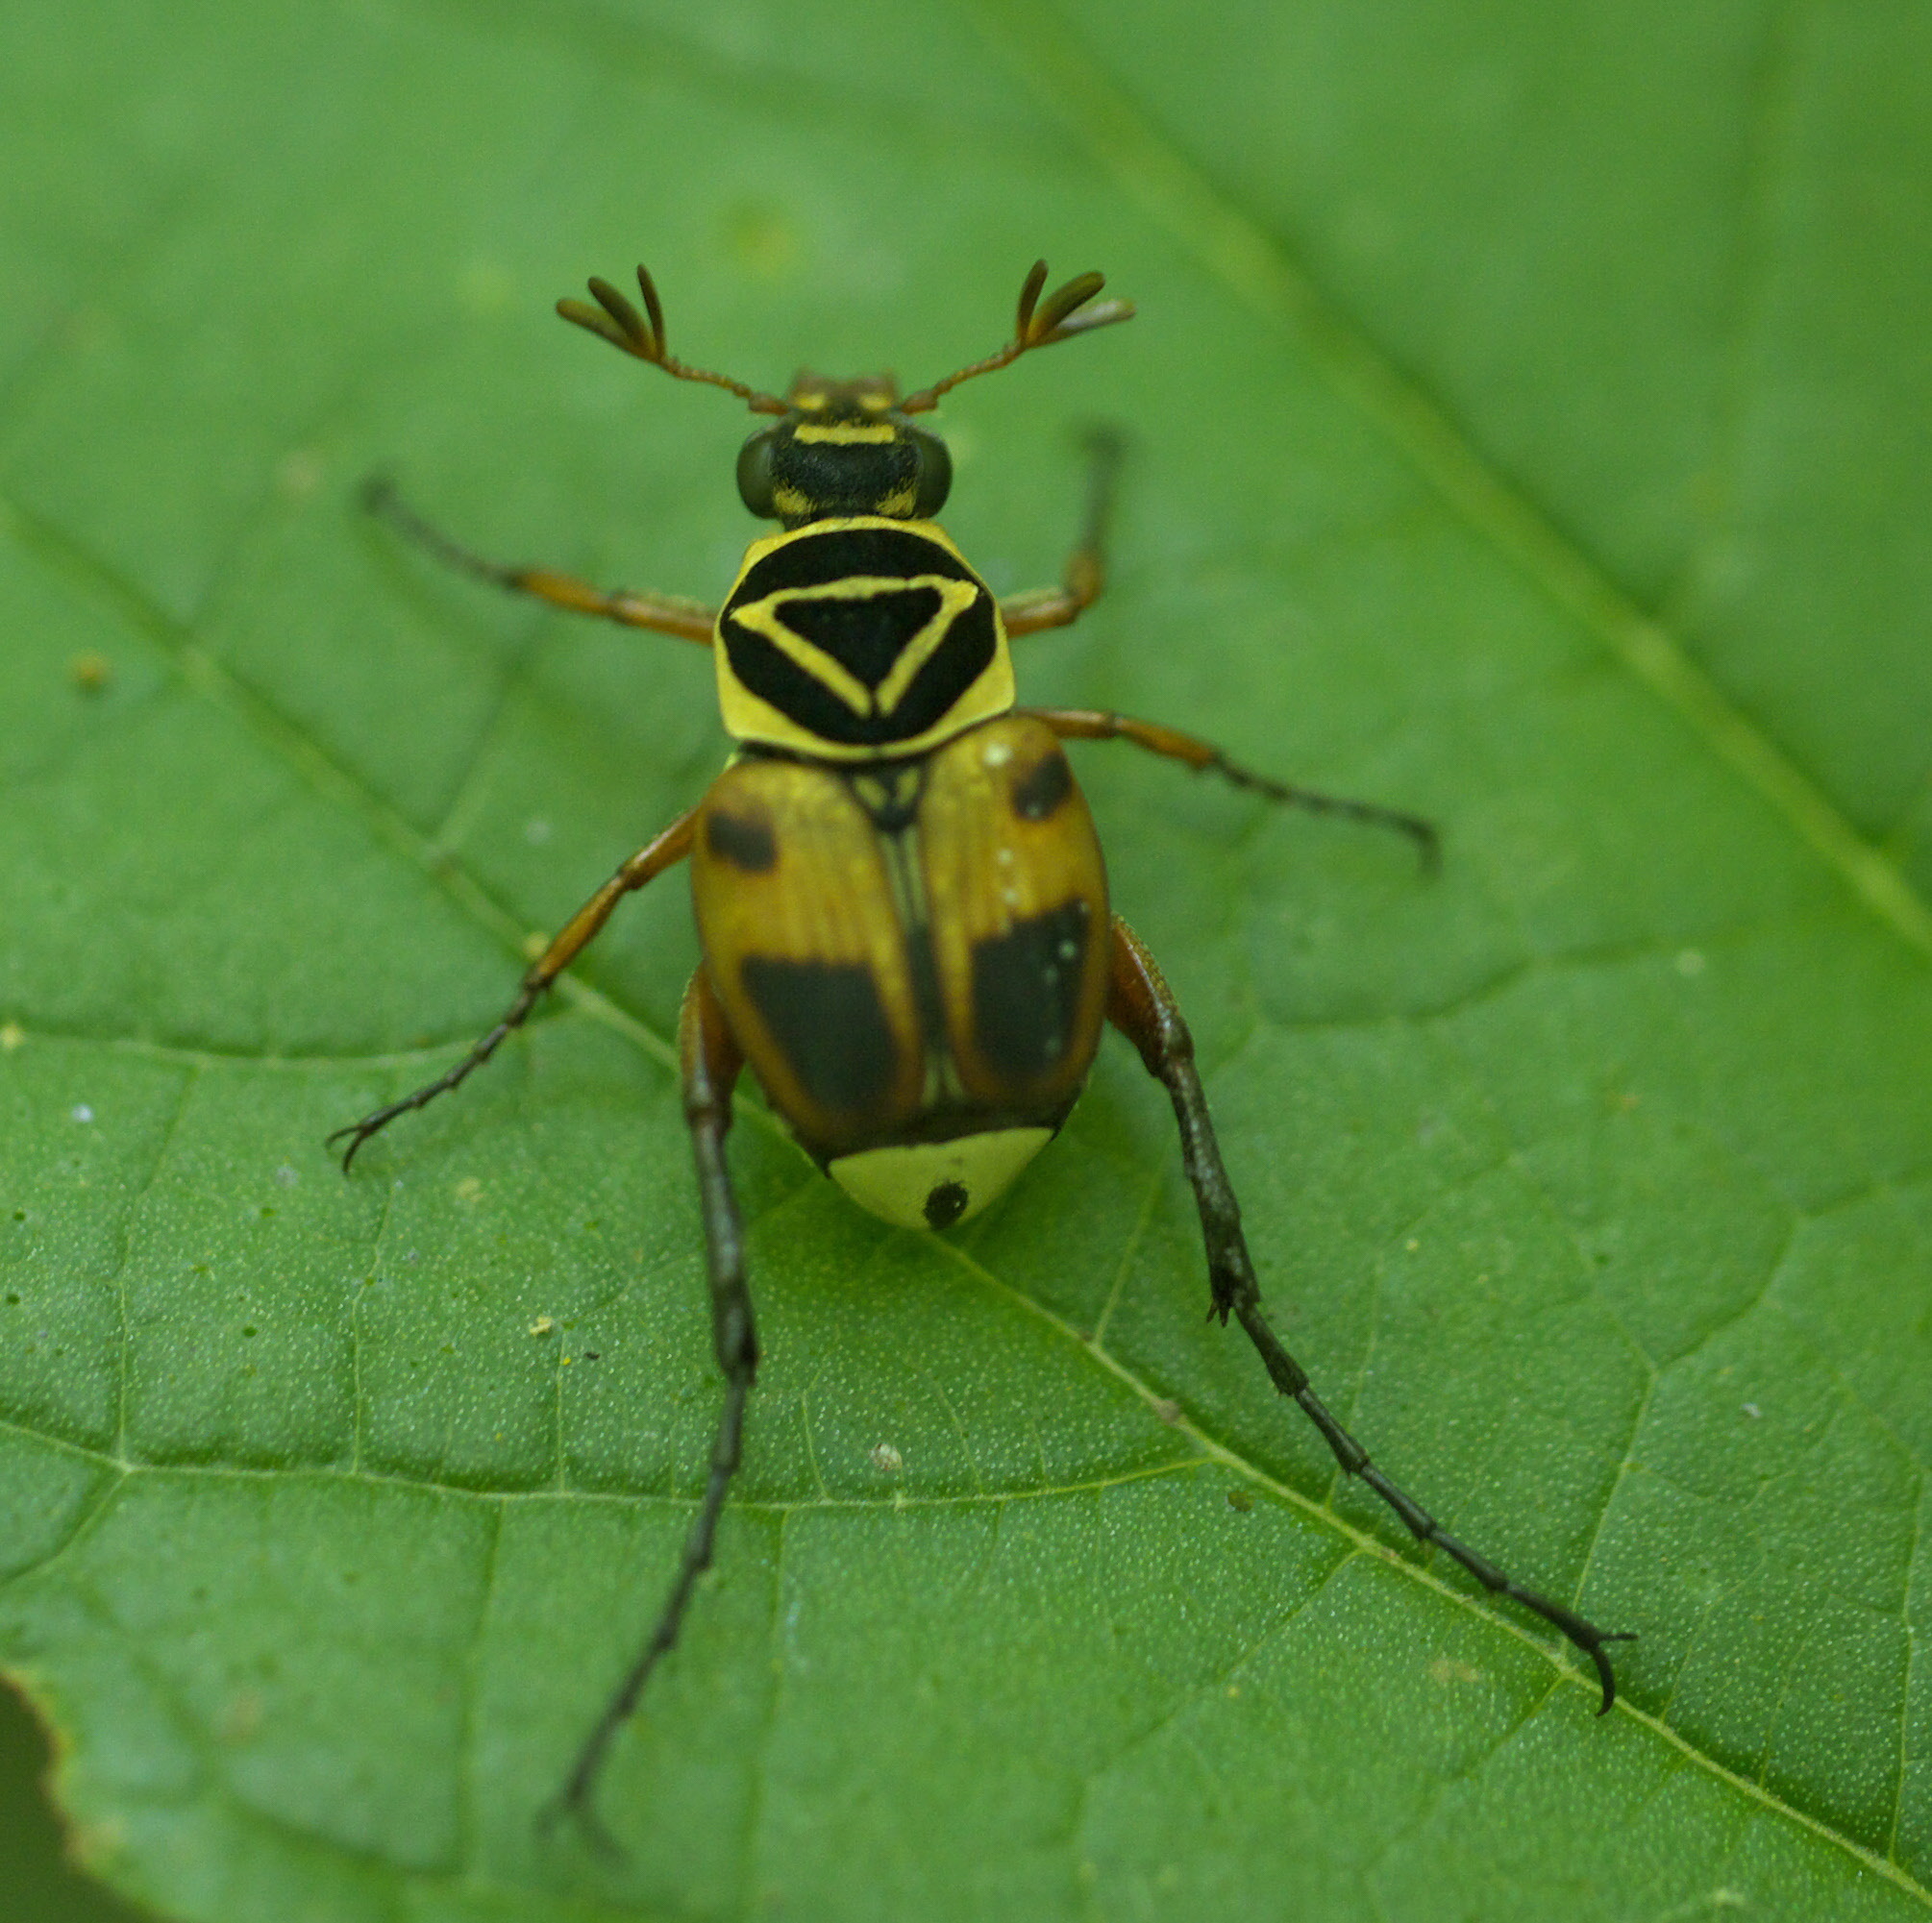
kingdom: Animalia
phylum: Arthropoda
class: Insecta
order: Coleoptera
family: Scarabaeidae
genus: Trigonopeltastes
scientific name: Trigonopeltastes delta
